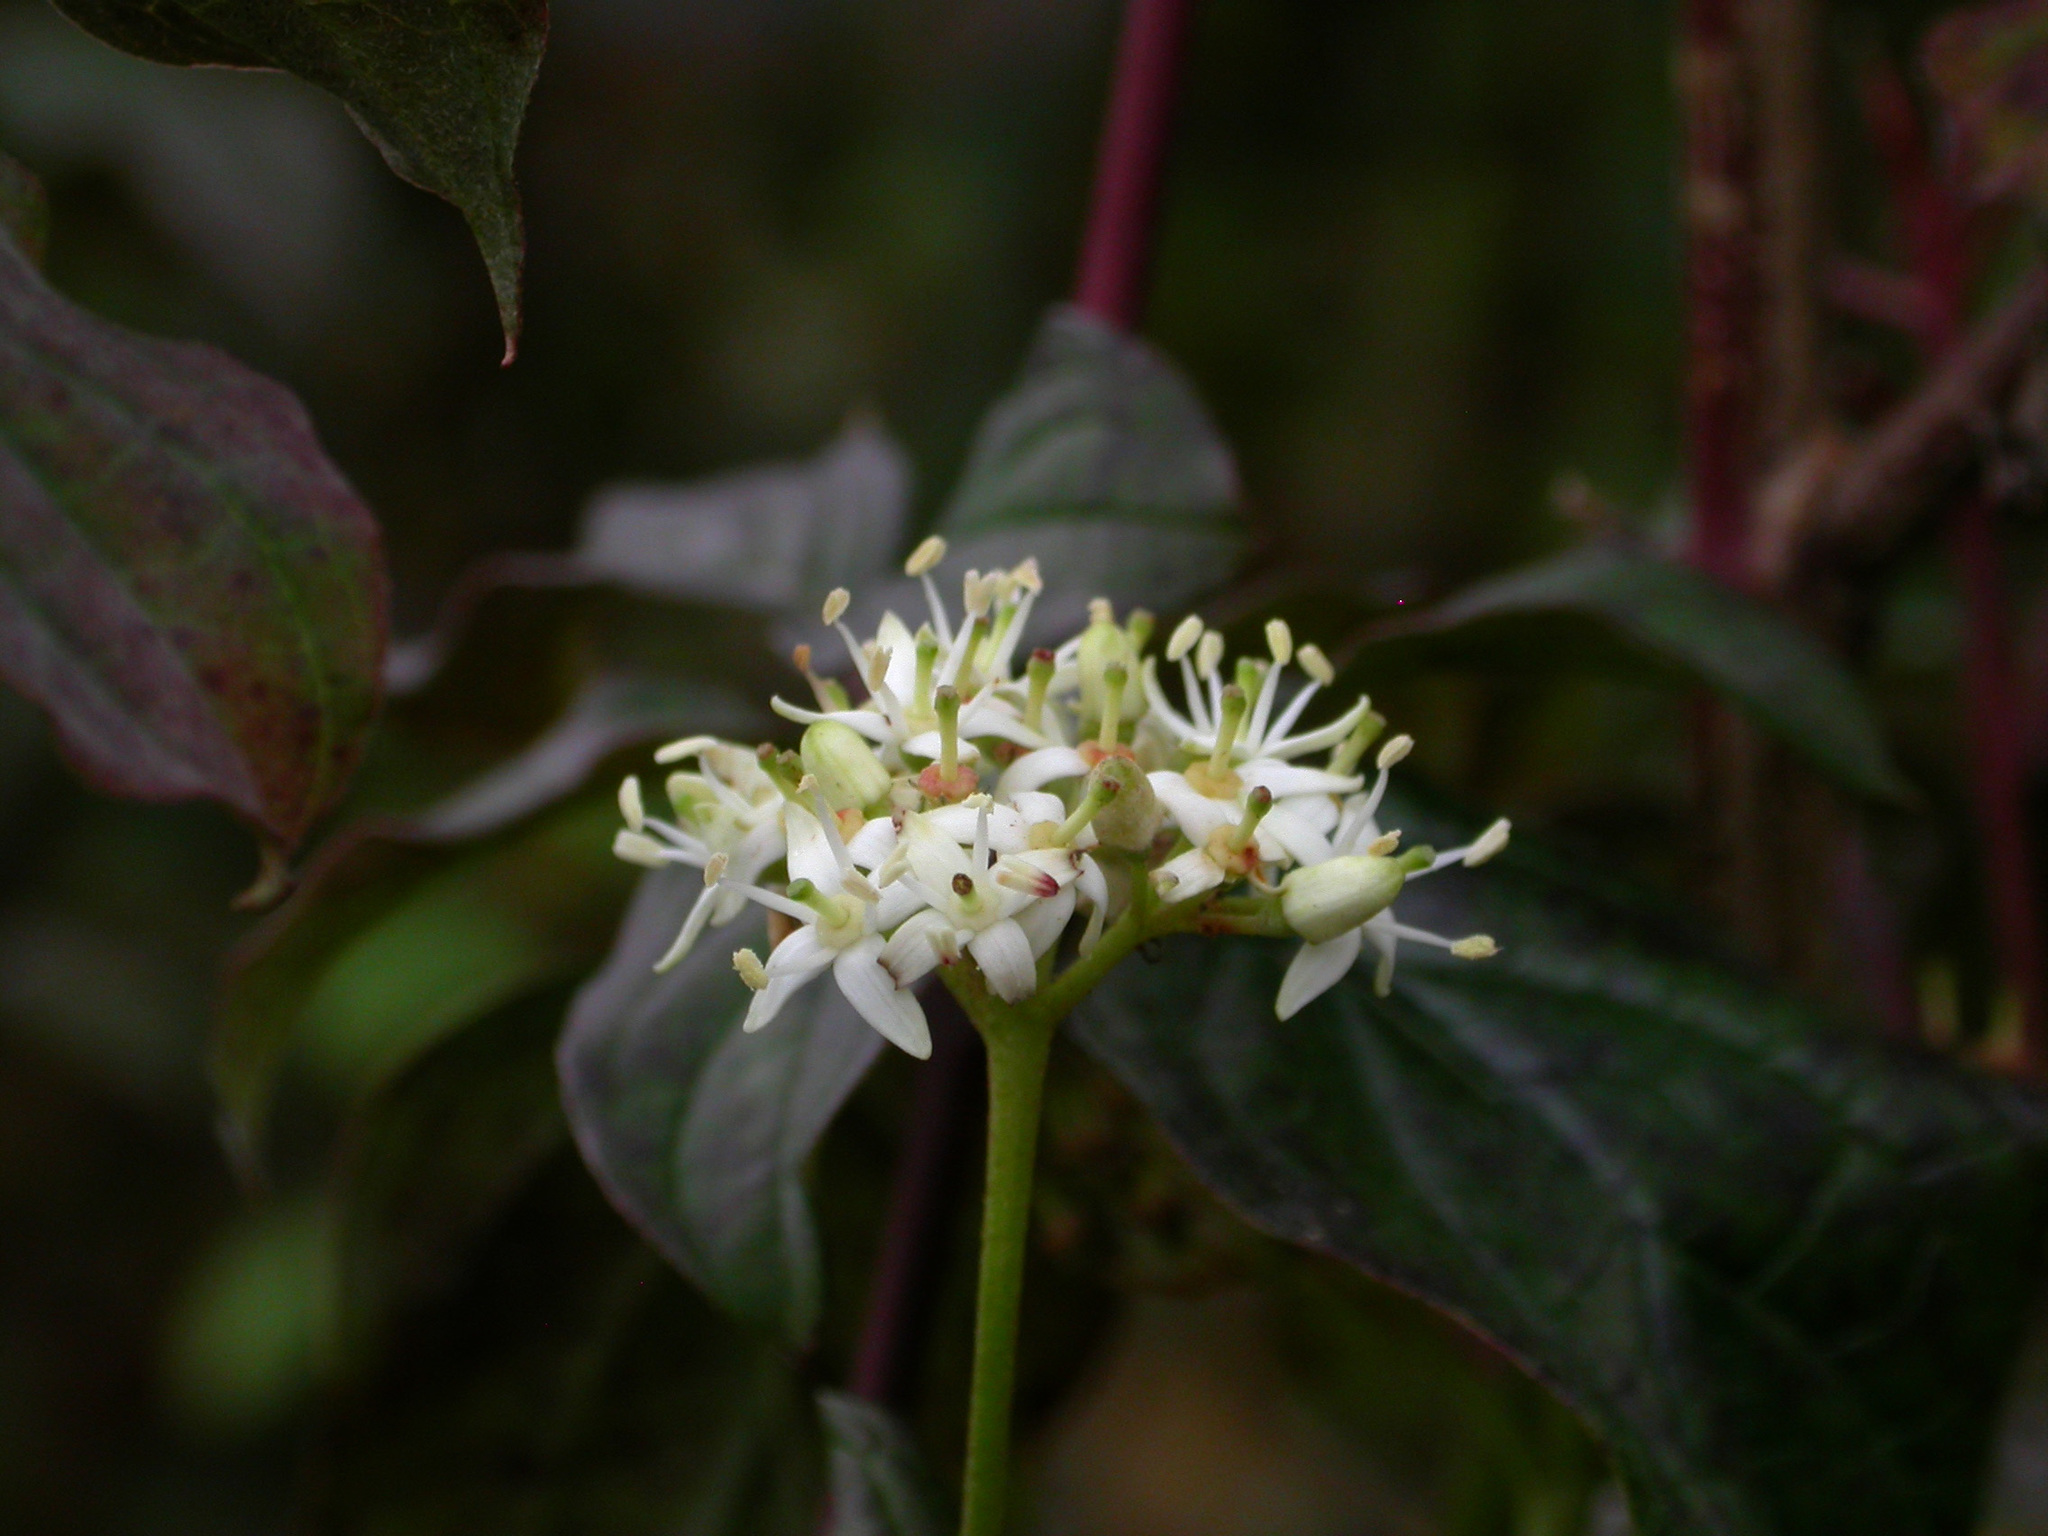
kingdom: Plantae
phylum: Tracheophyta
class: Magnoliopsida
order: Cornales
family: Cornaceae
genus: Cornus
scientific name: Cornus sanguinea
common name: Dogwood
